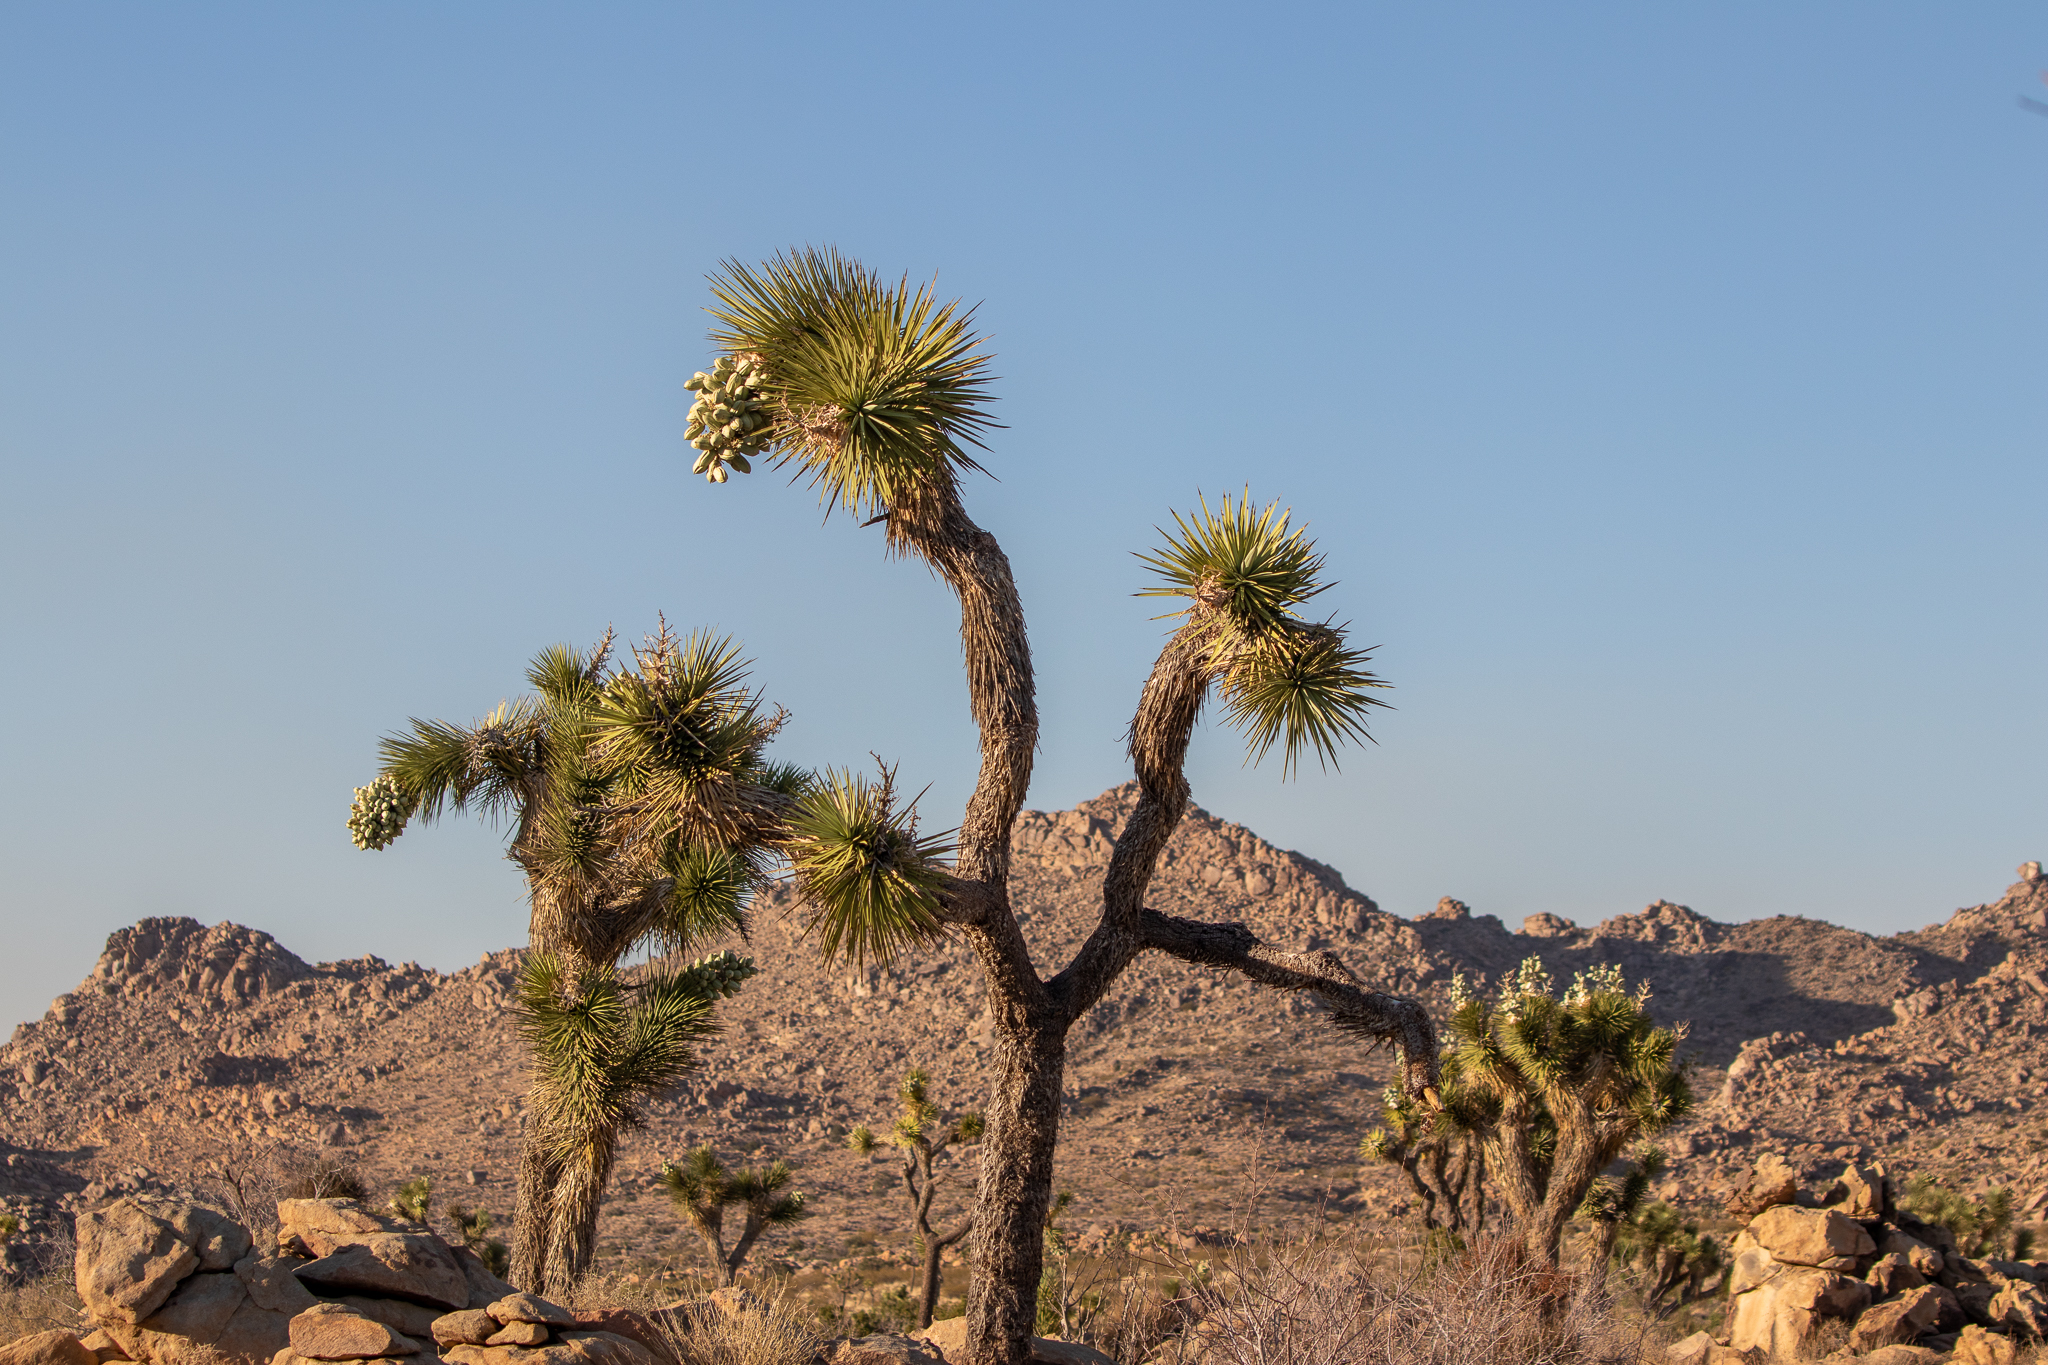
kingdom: Plantae
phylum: Tracheophyta
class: Liliopsida
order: Asparagales
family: Asparagaceae
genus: Yucca
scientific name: Yucca brevifolia
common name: Joshua tree
